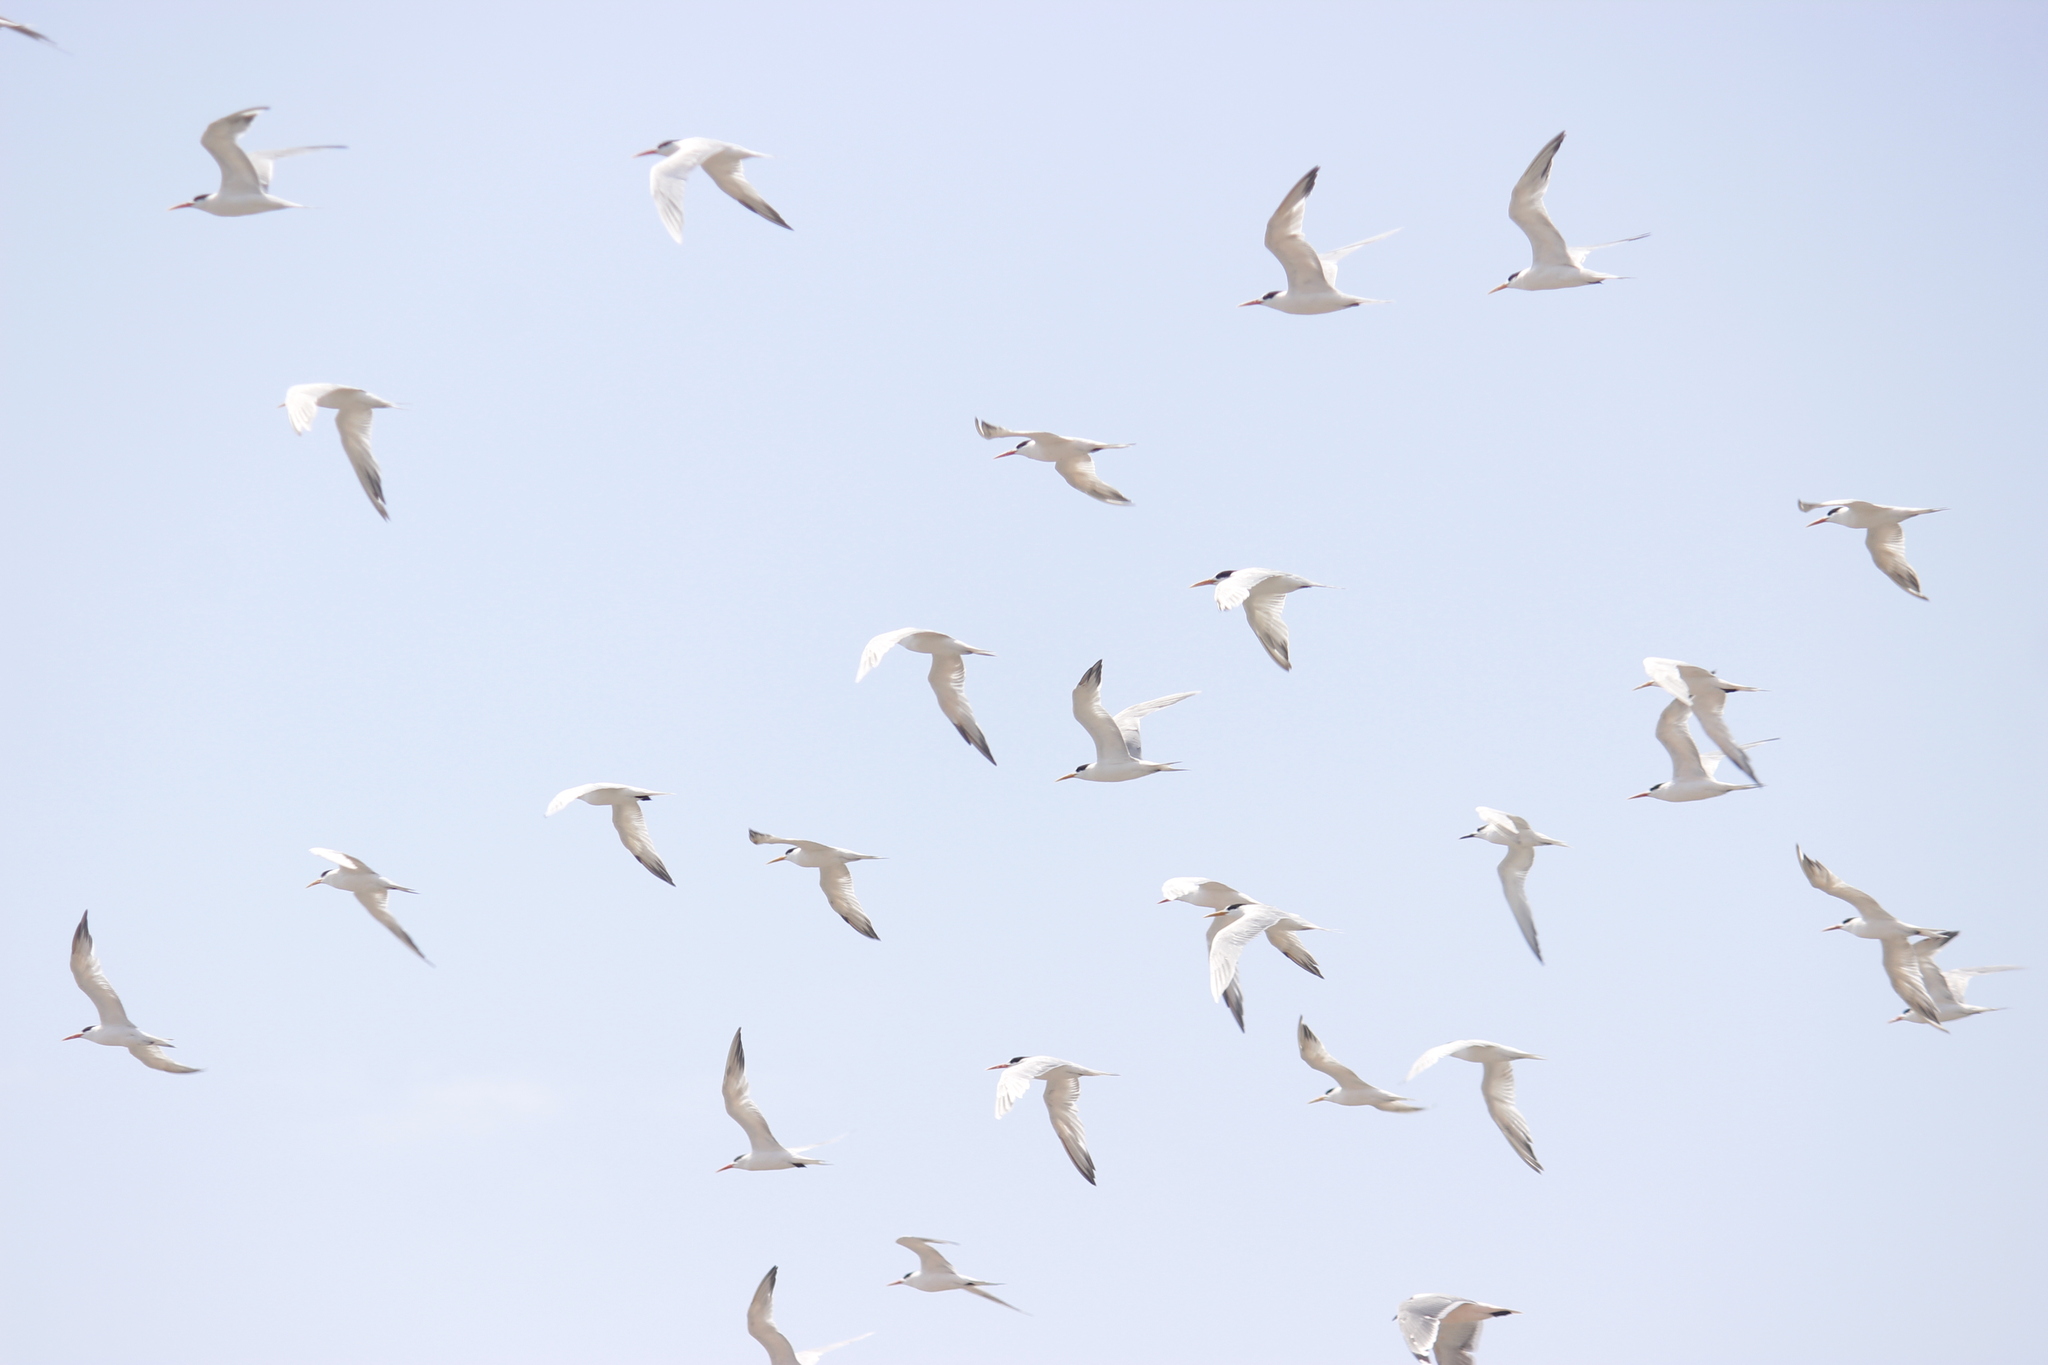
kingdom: Animalia
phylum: Chordata
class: Aves
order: Charadriiformes
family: Laridae
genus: Thalasseus
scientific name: Thalasseus elegans
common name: Elegant tern
